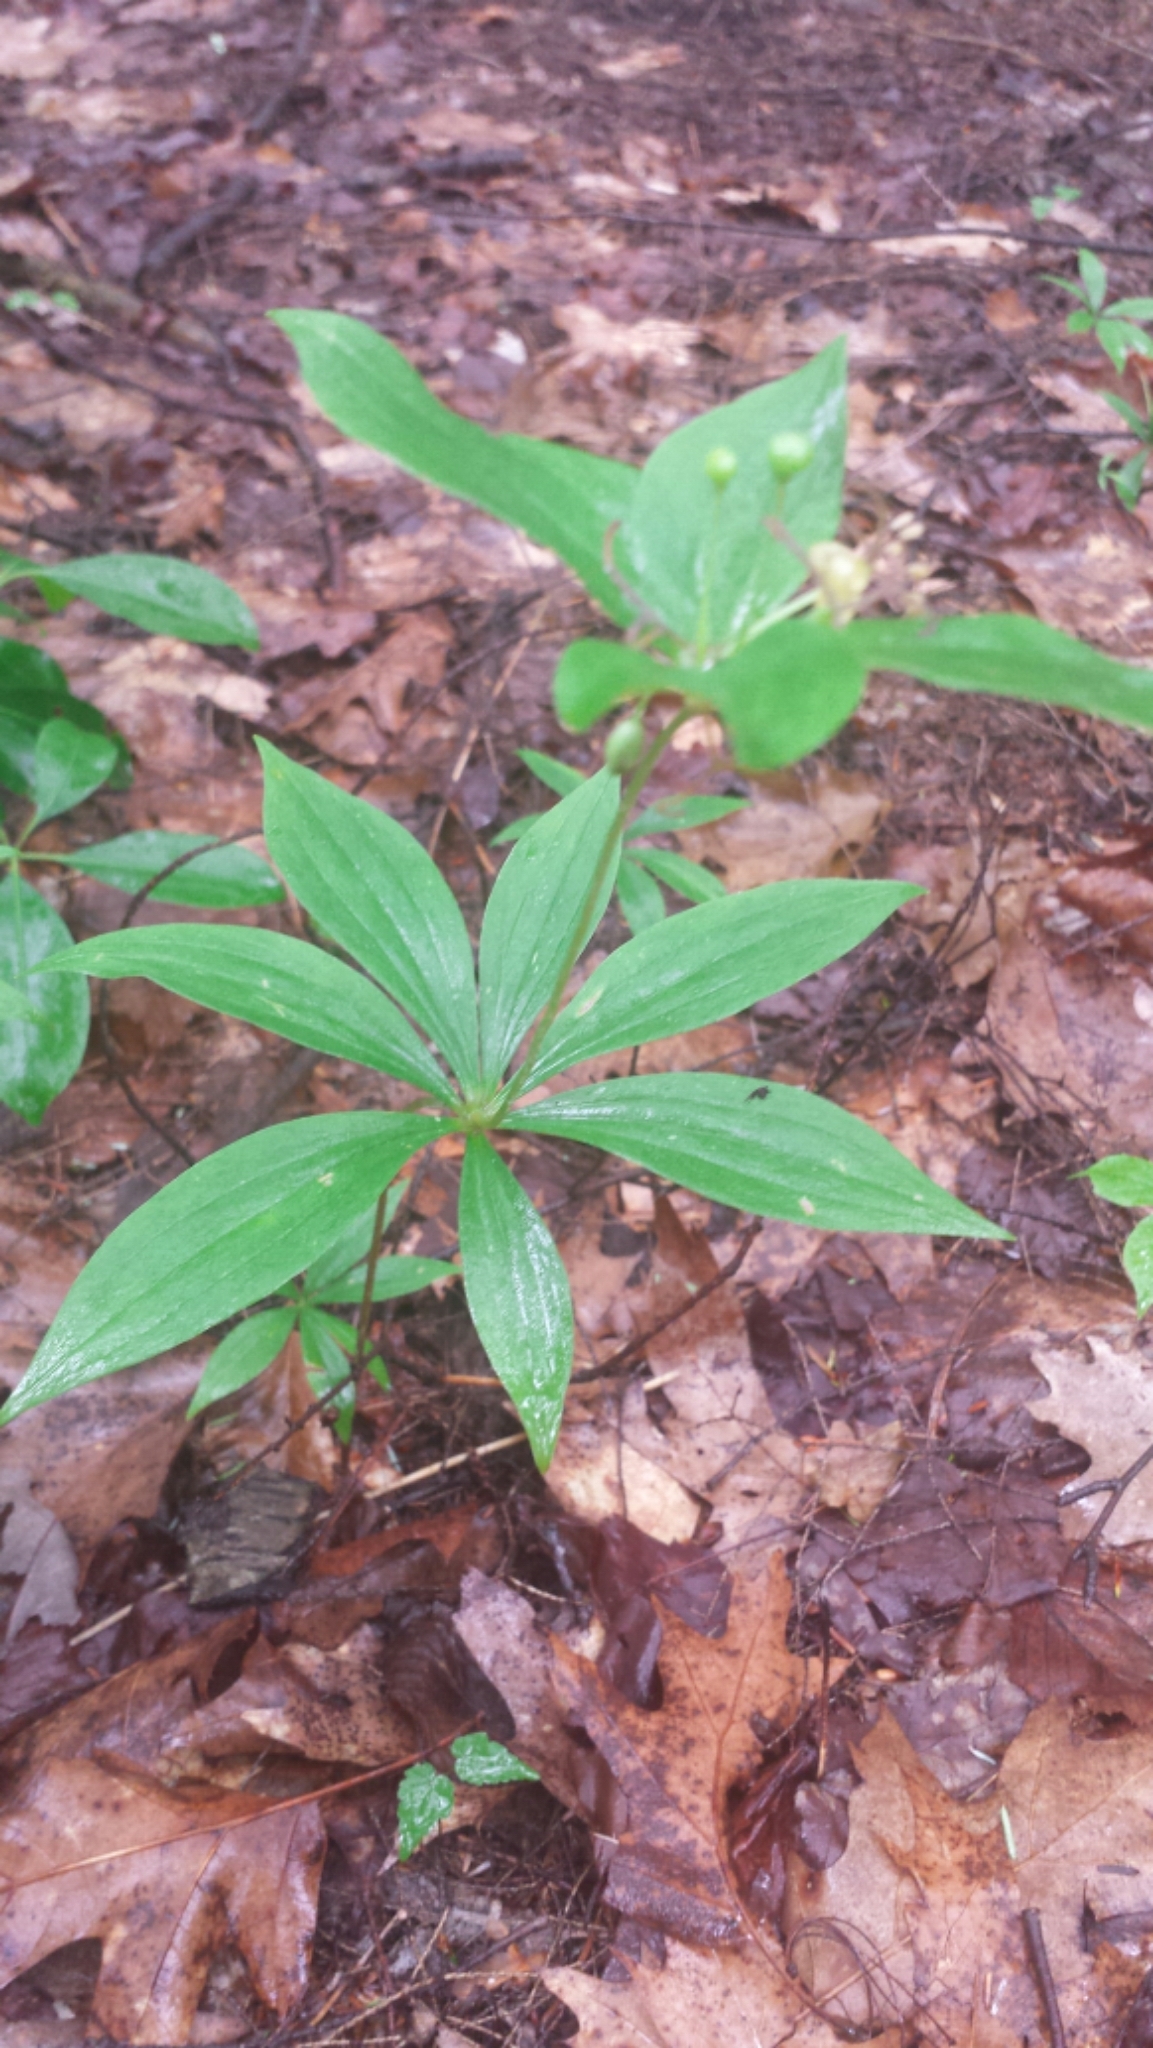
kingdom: Plantae
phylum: Tracheophyta
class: Liliopsida
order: Liliales
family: Liliaceae
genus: Medeola
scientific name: Medeola virginiana
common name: Indian cucumber-root
